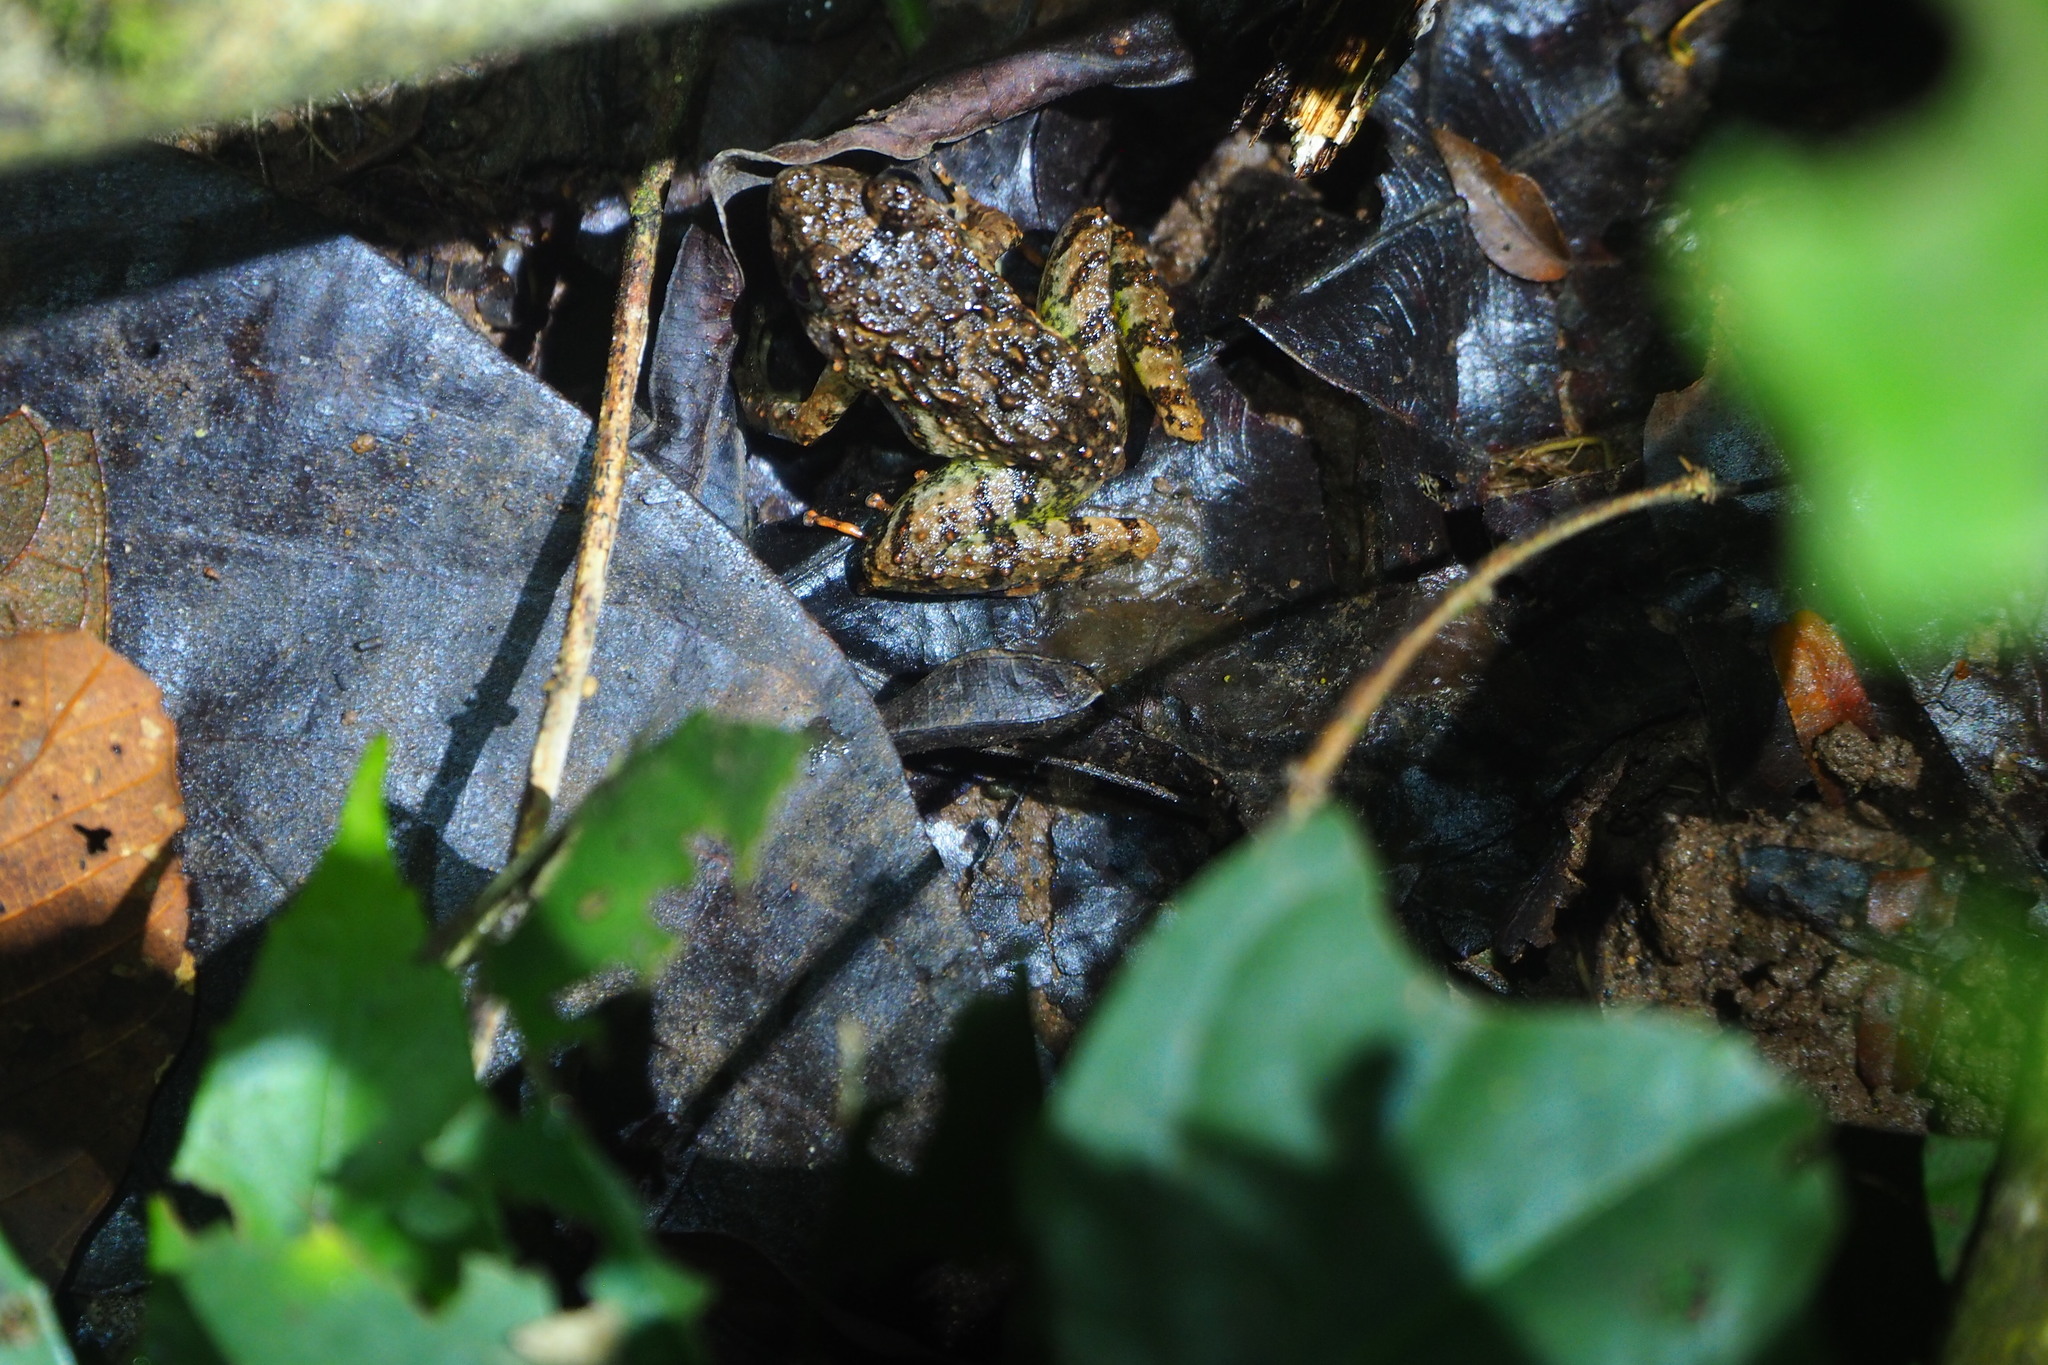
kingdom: Animalia
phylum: Chordata
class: Amphibia
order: Anura
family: Dicroglossidae
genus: Limnonectes
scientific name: Limnonectes finchi
